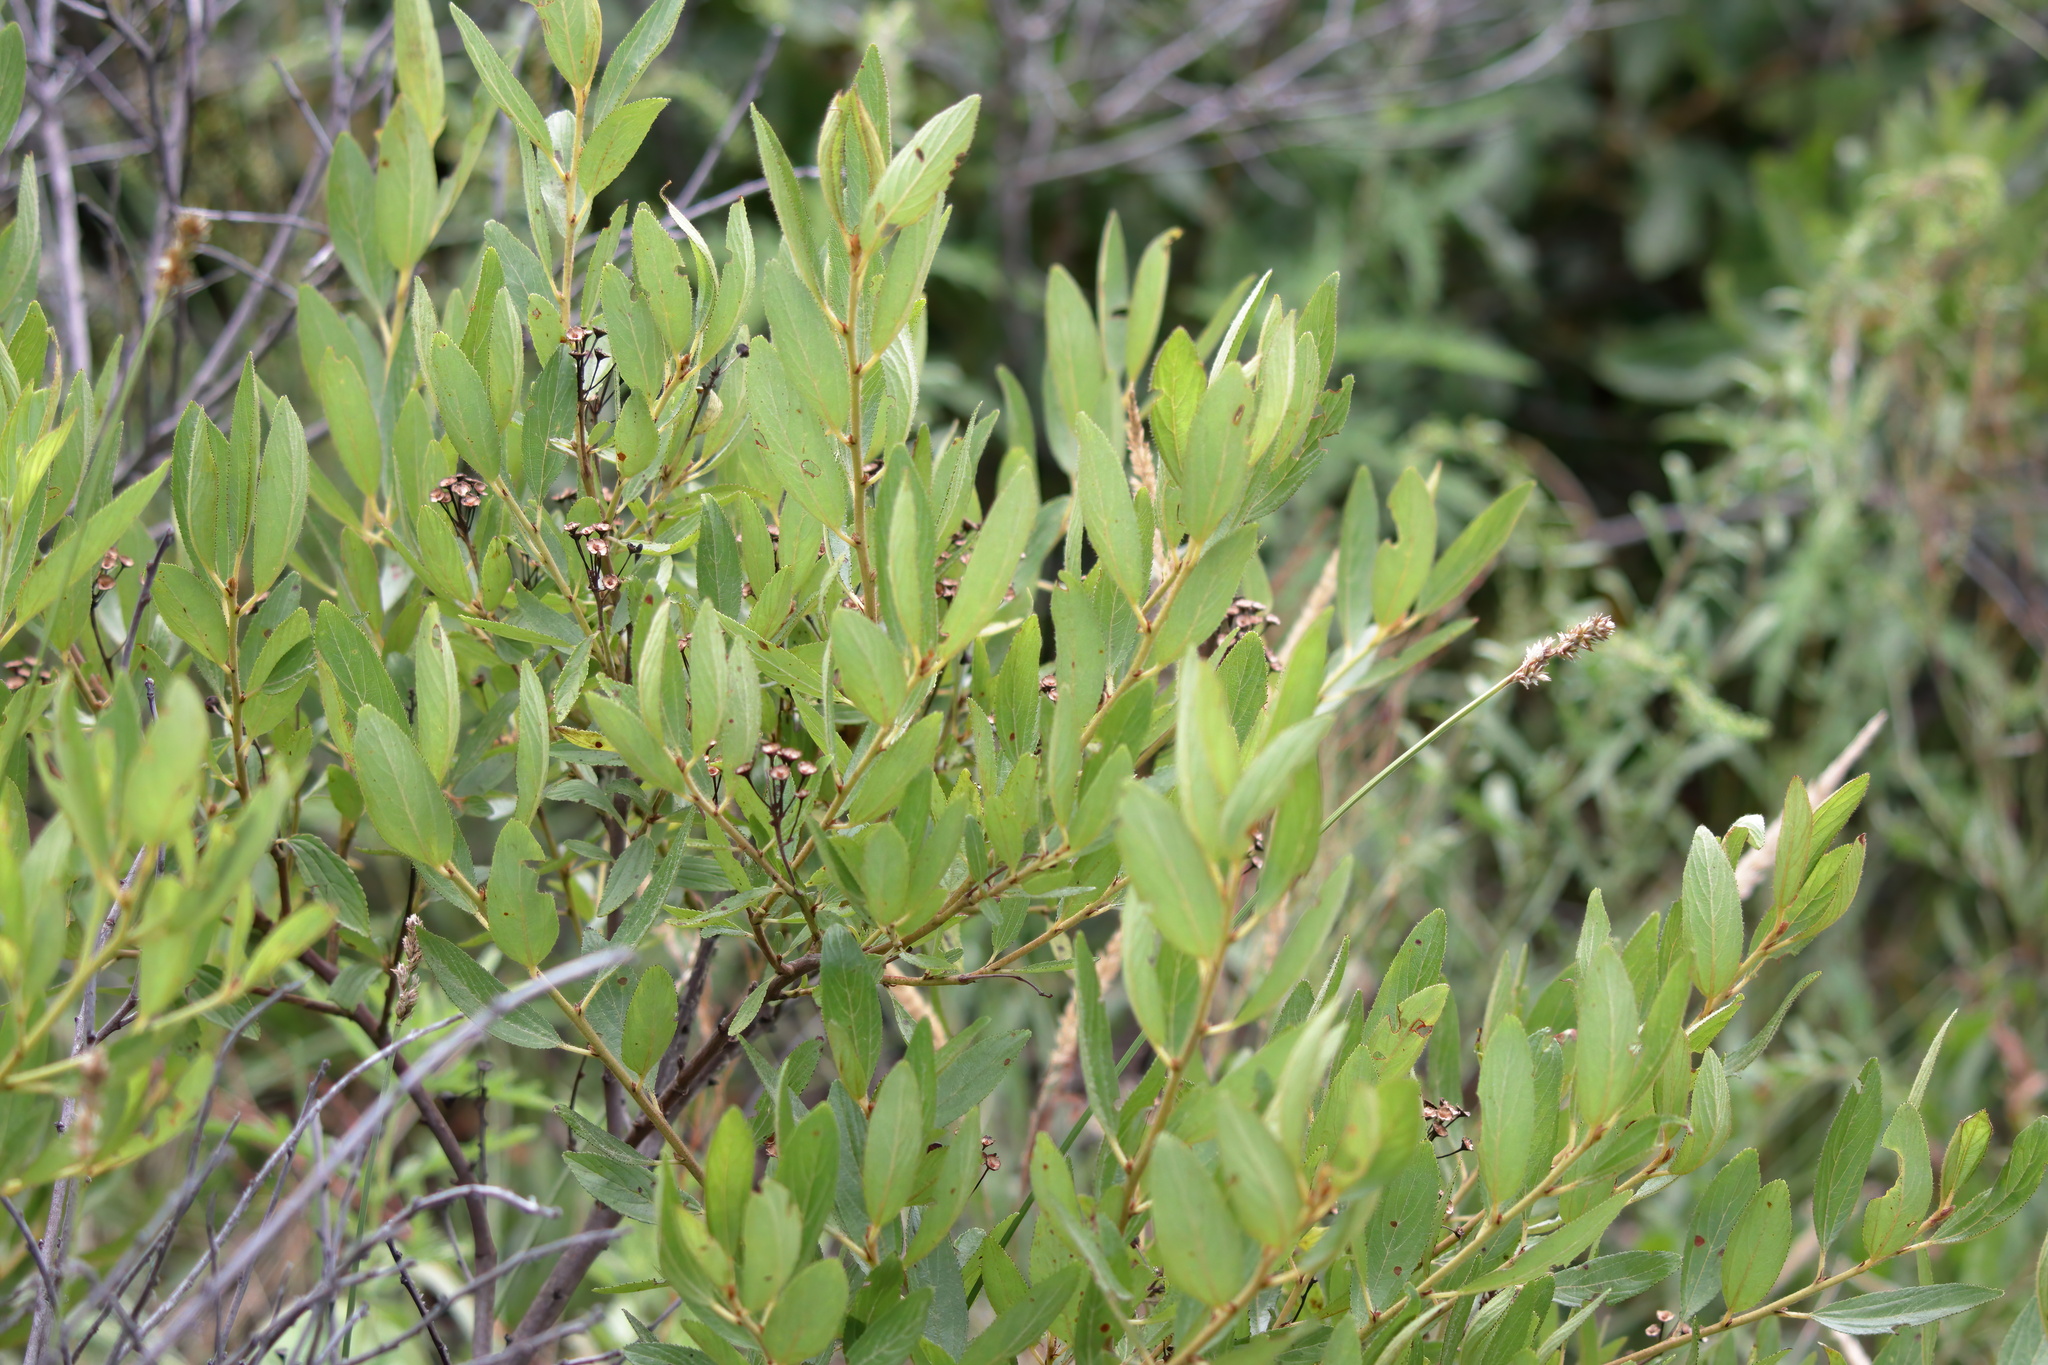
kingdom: Plantae
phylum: Tracheophyta
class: Magnoliopsida
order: Rosales
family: Rhamnaceae
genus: Ceanothus
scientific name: Ceanothus herbaceus
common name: Inland ceanothus
